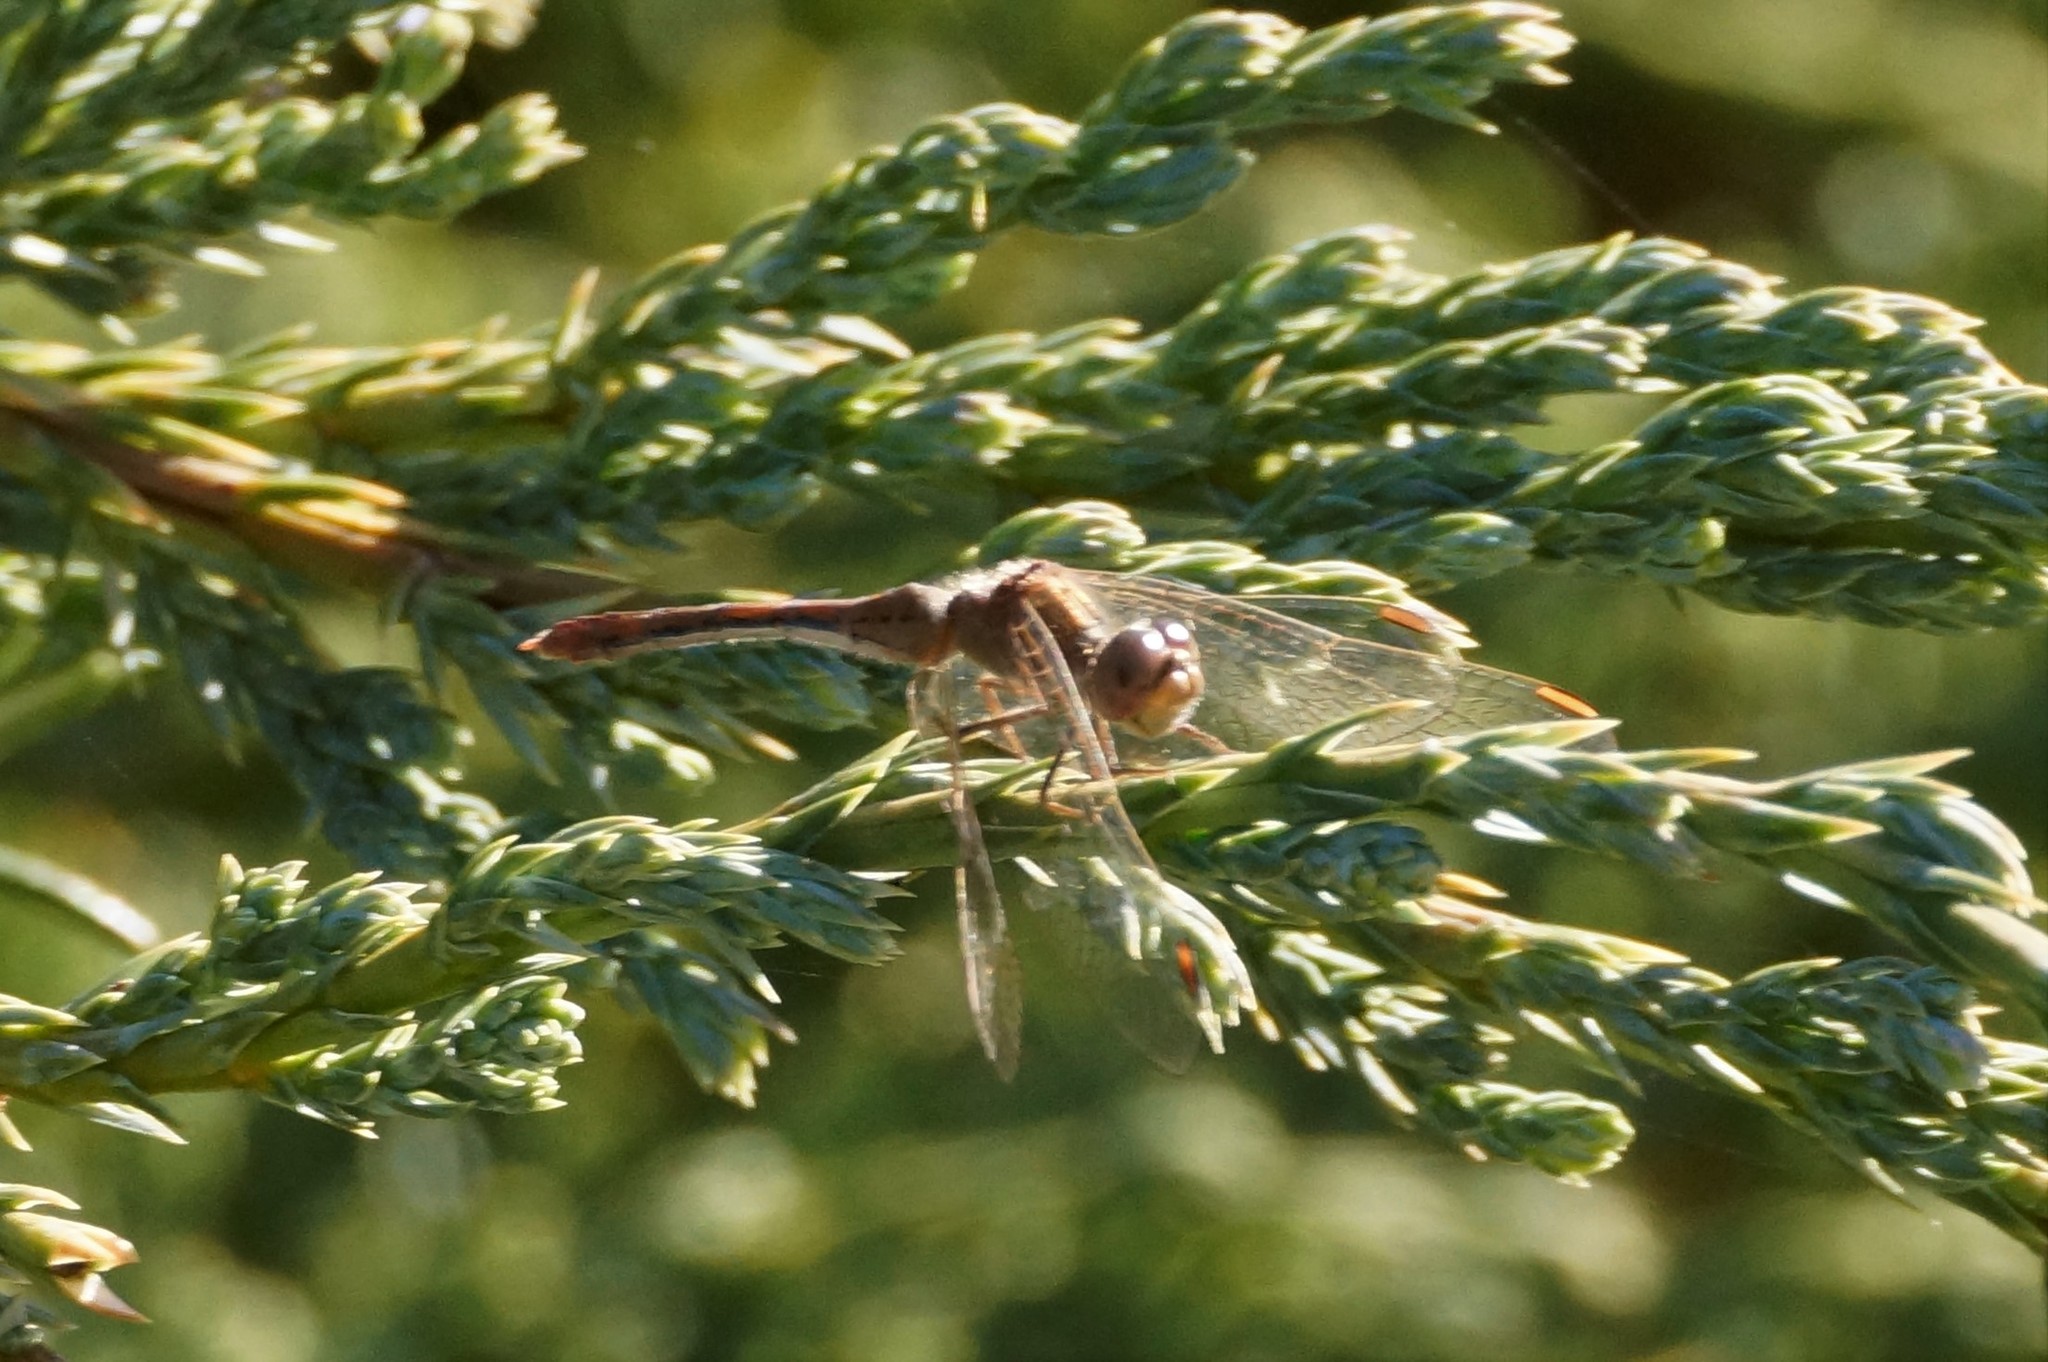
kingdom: Animalia
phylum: Arthropoda
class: Insecta
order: Odonata
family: Libellulidae
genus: Diplacodes
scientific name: Diplacodes bipunctata
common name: Red percher dragonfly
